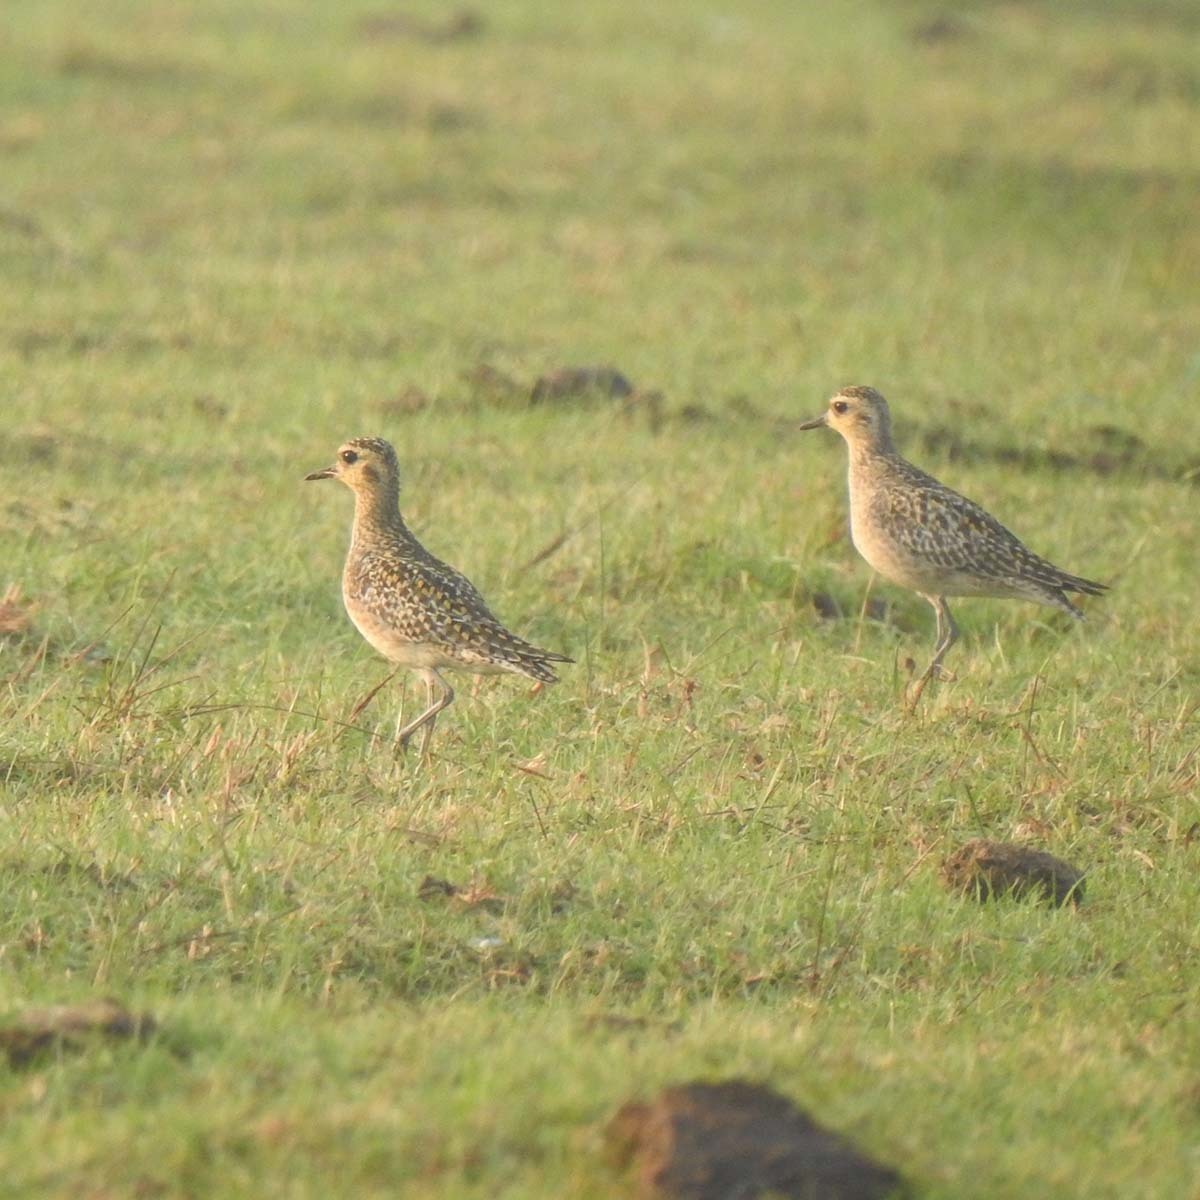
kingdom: Animalia
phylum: Chordata
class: Aves
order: Charadriiformes
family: Charadriidae
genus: Pluvialis
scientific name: Pluvialis fulva
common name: Pacific golden plover
